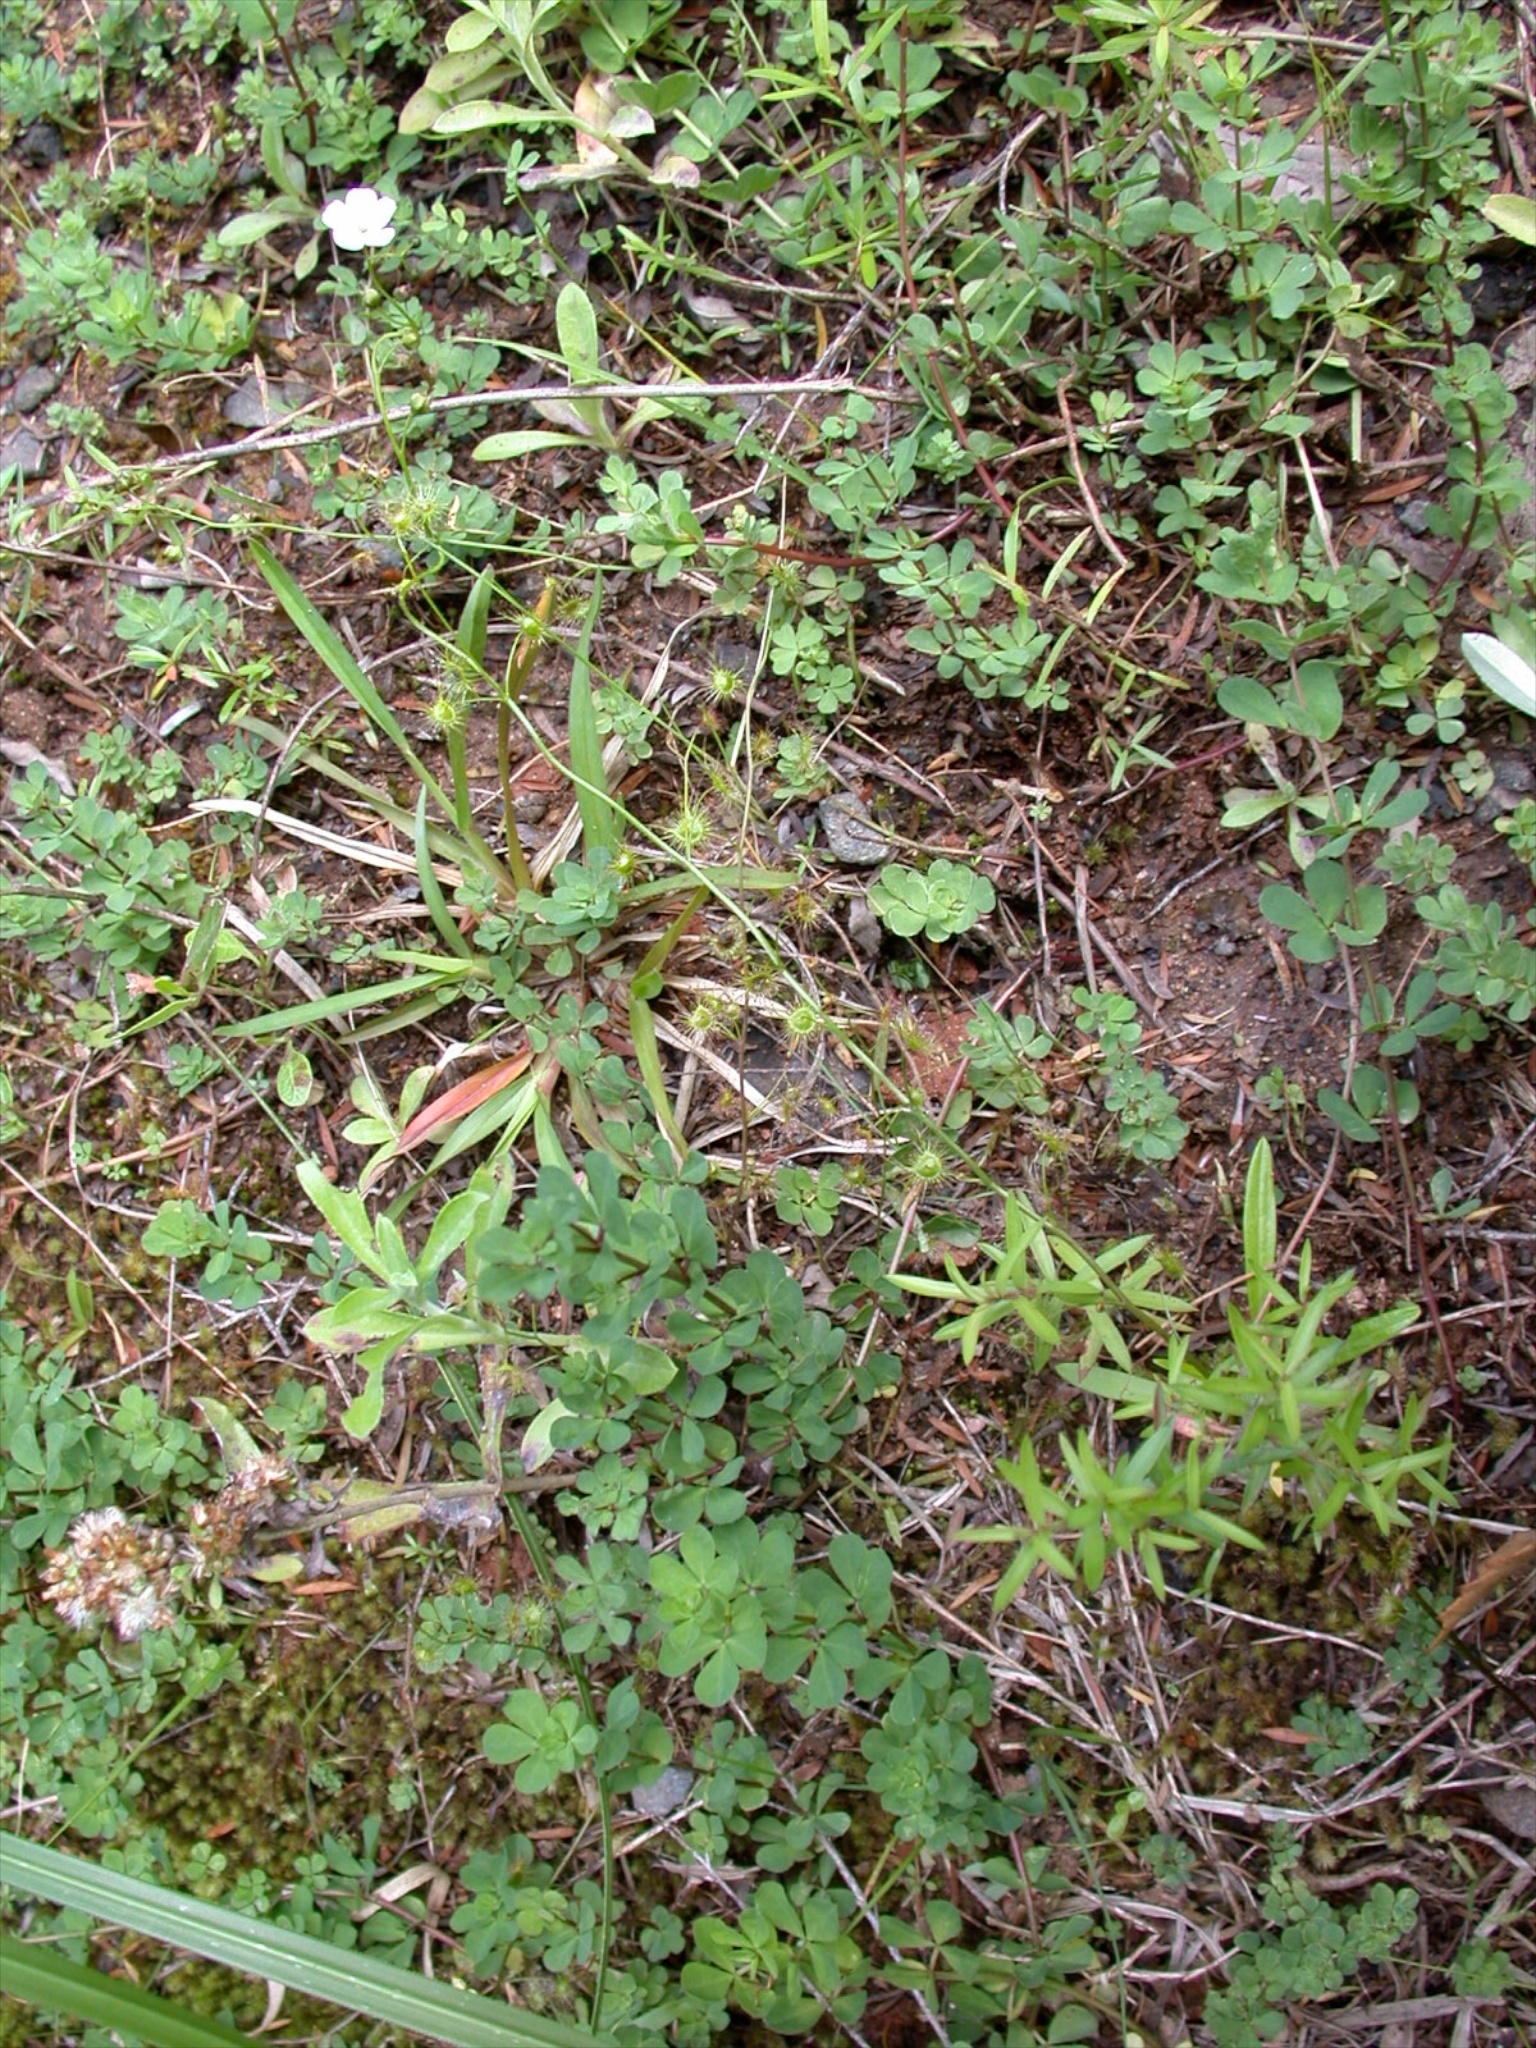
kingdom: Plantae
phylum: Tracheophyta
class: Magnoliopsida
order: Caryophyllales
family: Droseraceae
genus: Drosera
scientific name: Drosera peltata
